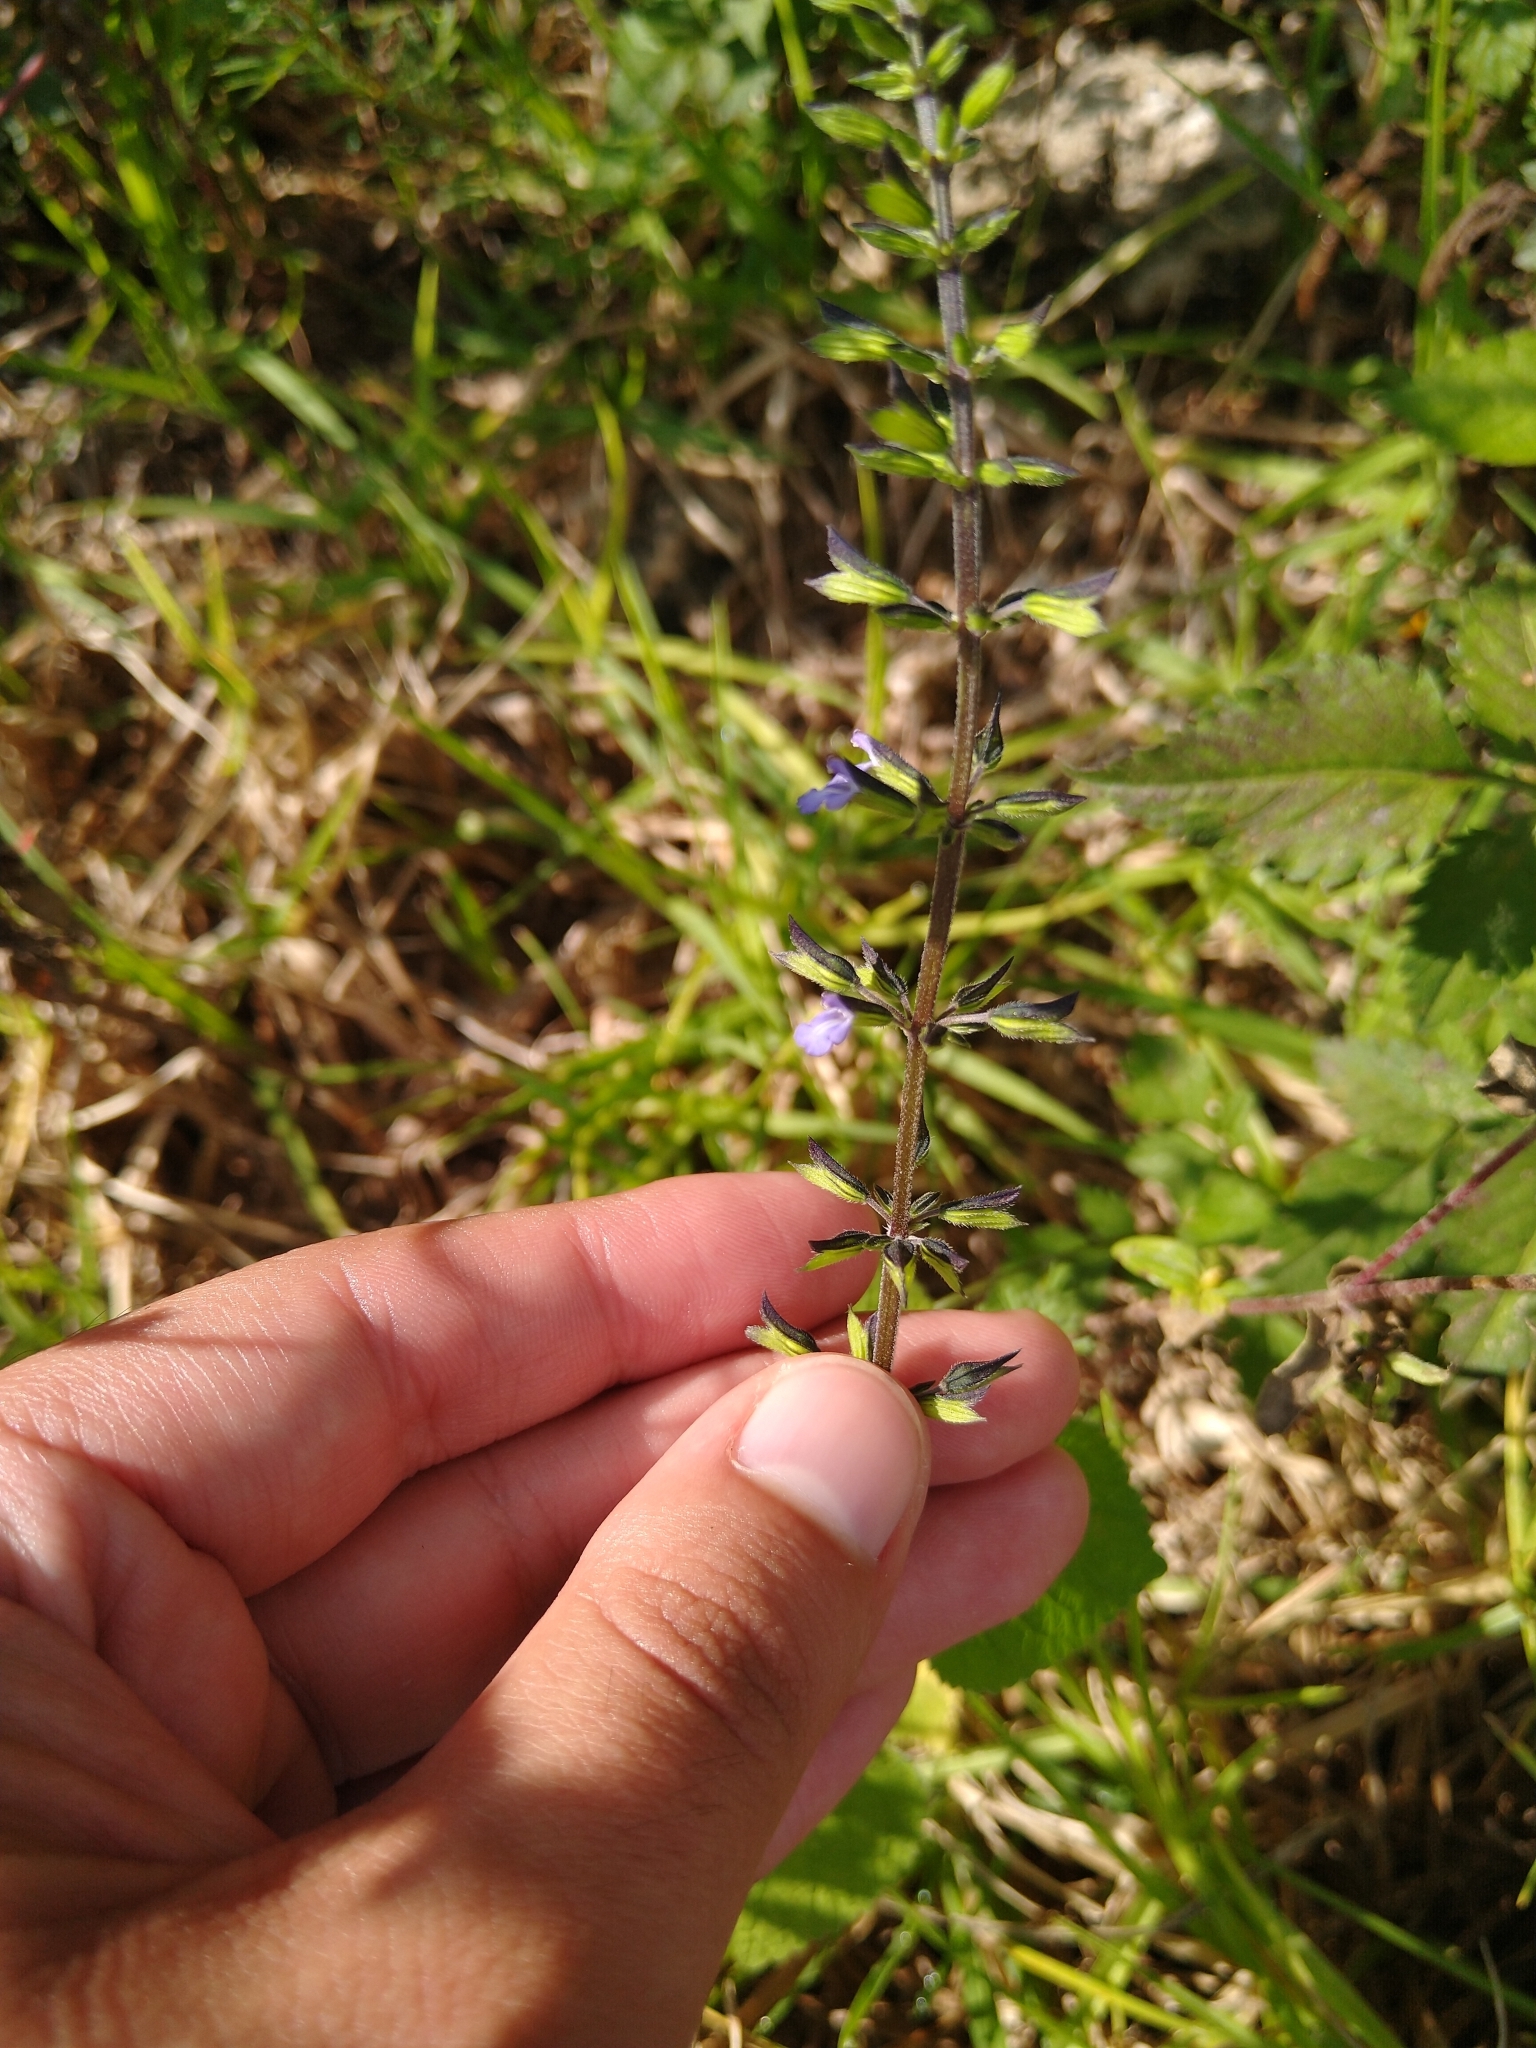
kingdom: Plantae
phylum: Tracheophyta
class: Magnoliopsida
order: Lamiales
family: Lamiaceae
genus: Salvia
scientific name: Salvia tiliifolia
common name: Lindenleaf sage
